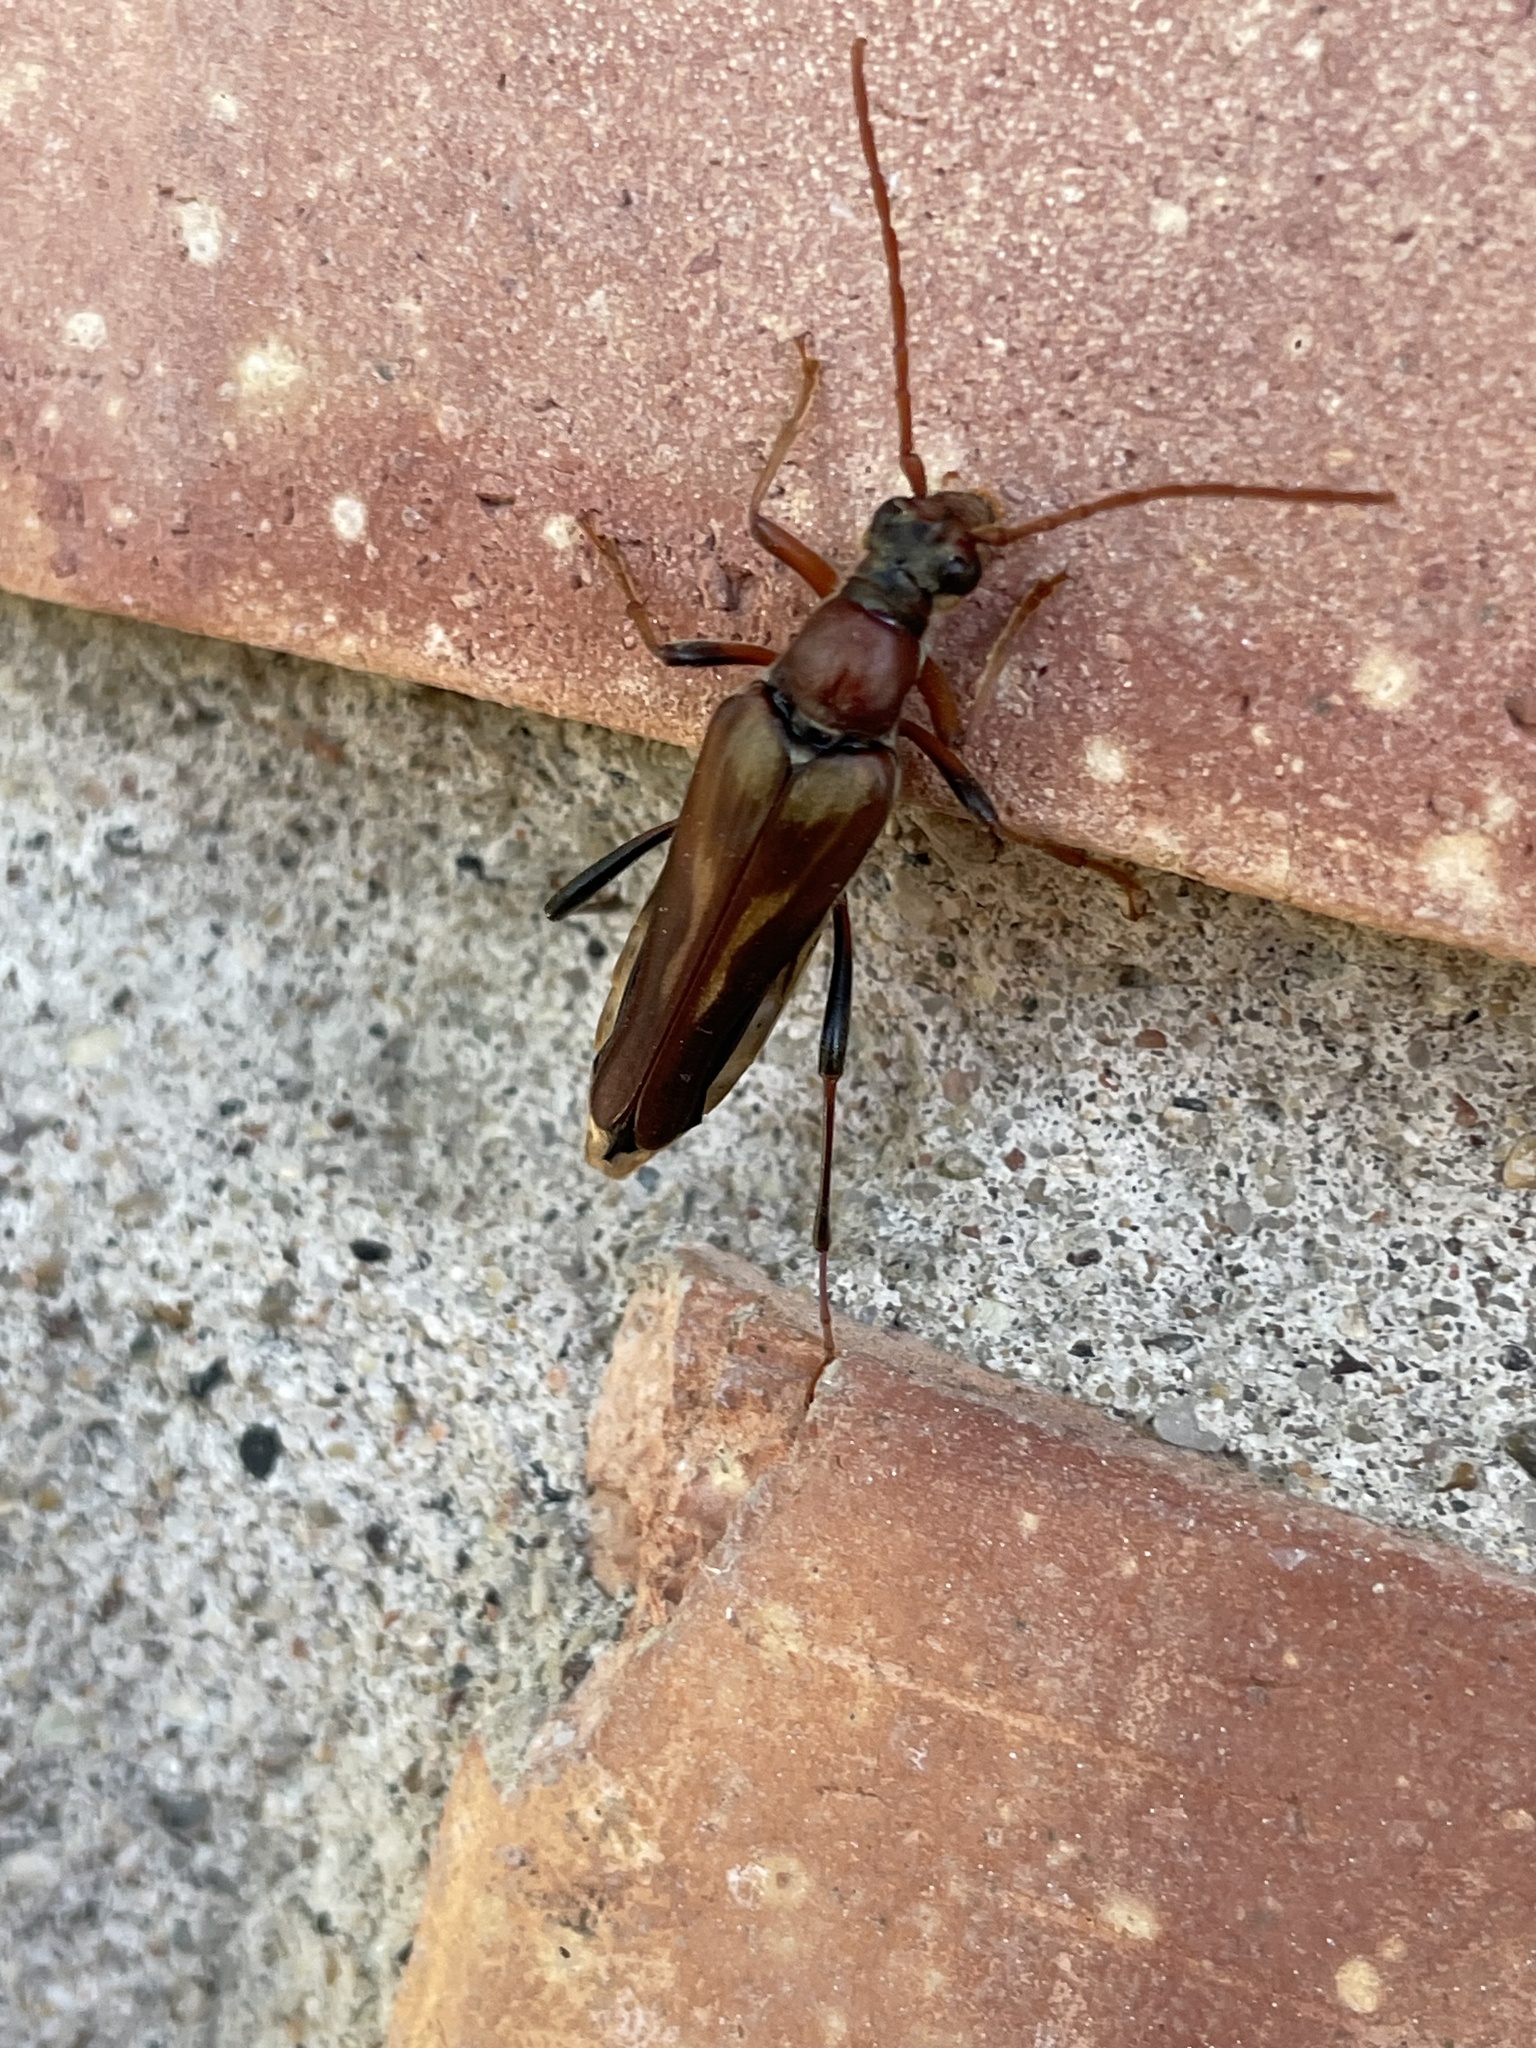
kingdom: Animalia
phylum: Arthropoda
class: Insecta
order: Coleoptera
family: Cerambycidae
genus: Bellamira
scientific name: Bellamira scalaris
